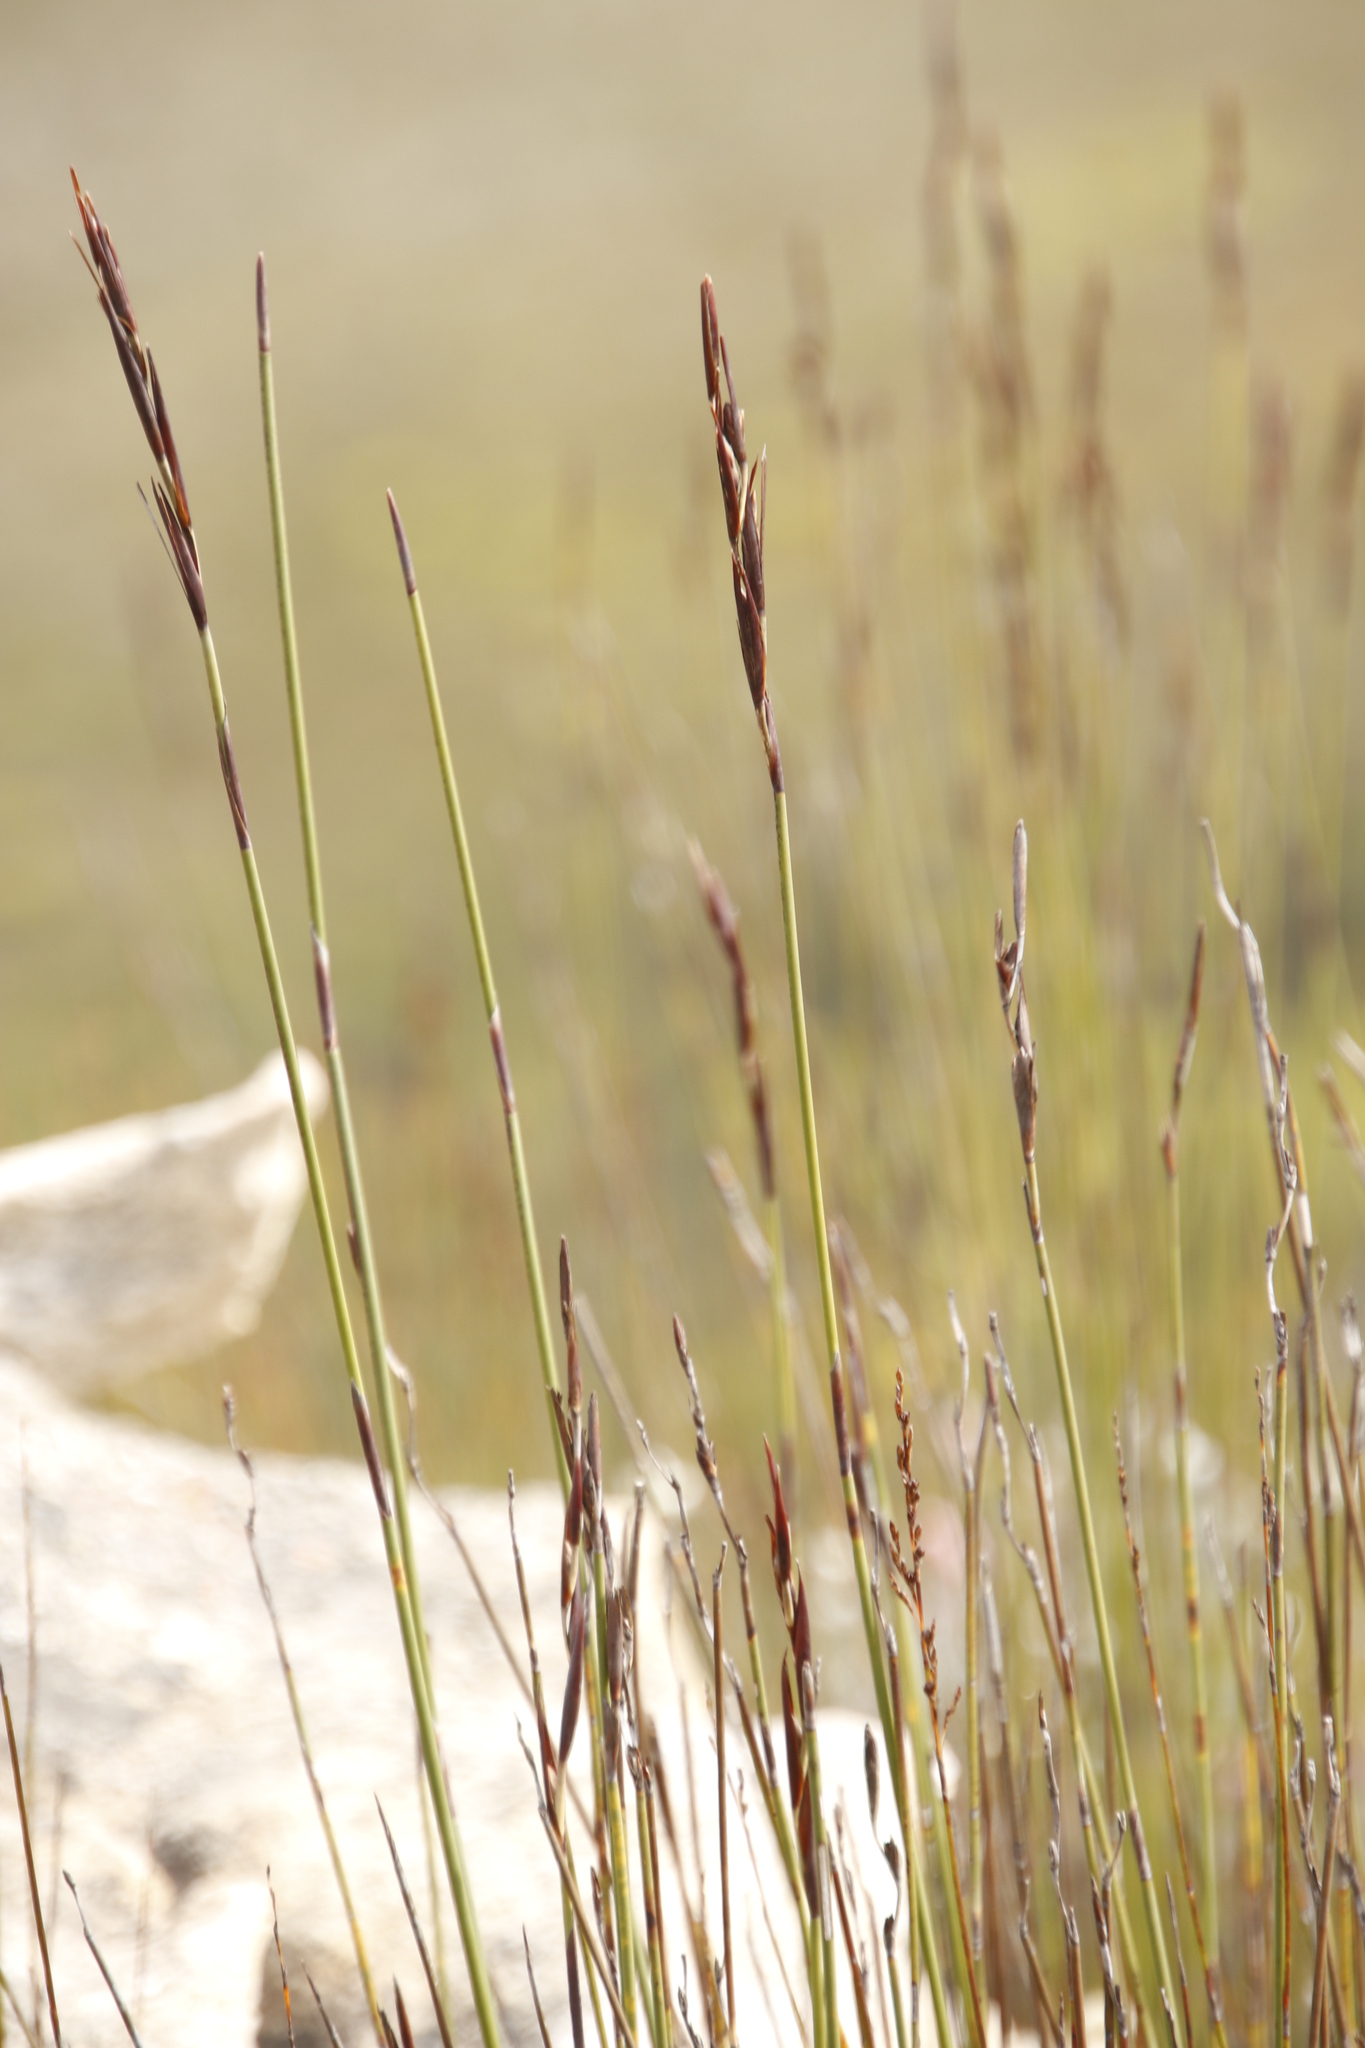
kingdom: Plantae
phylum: Tracheophyta
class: Liliopsida
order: Poales
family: Restionaceae
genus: Cannomois
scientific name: Cannomois scirpoides
